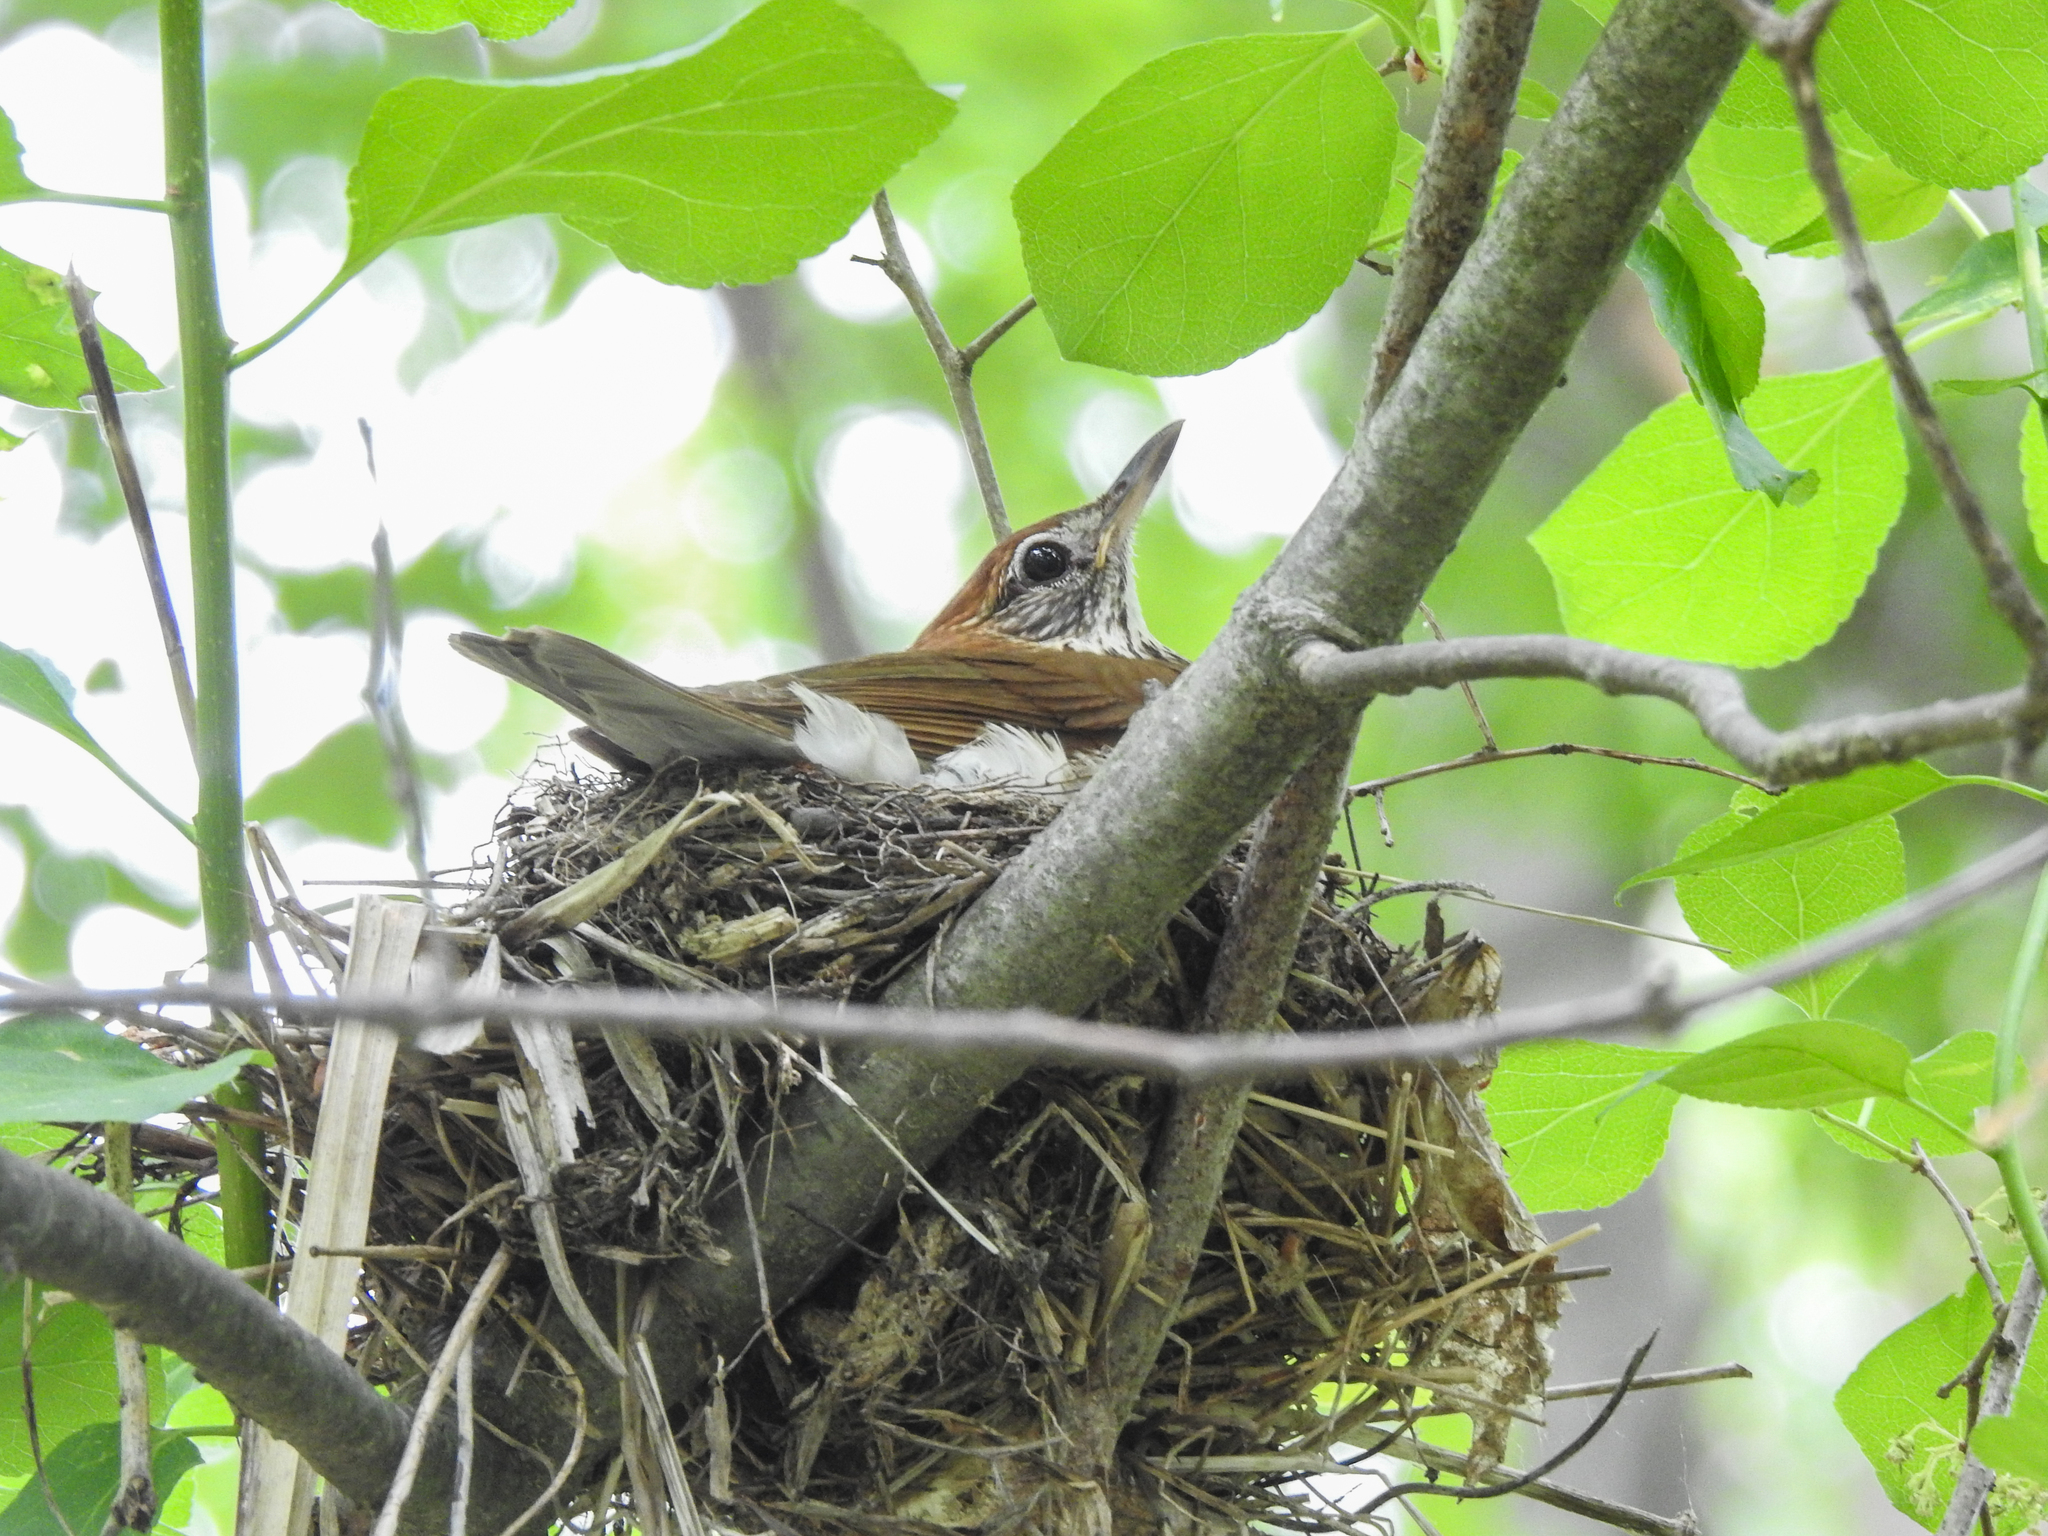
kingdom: Animalia
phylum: Chordata
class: Aves
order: Passeriformes
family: Turdidae
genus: Hylocichla
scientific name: Hylocichla mustelina
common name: Wood thrush
